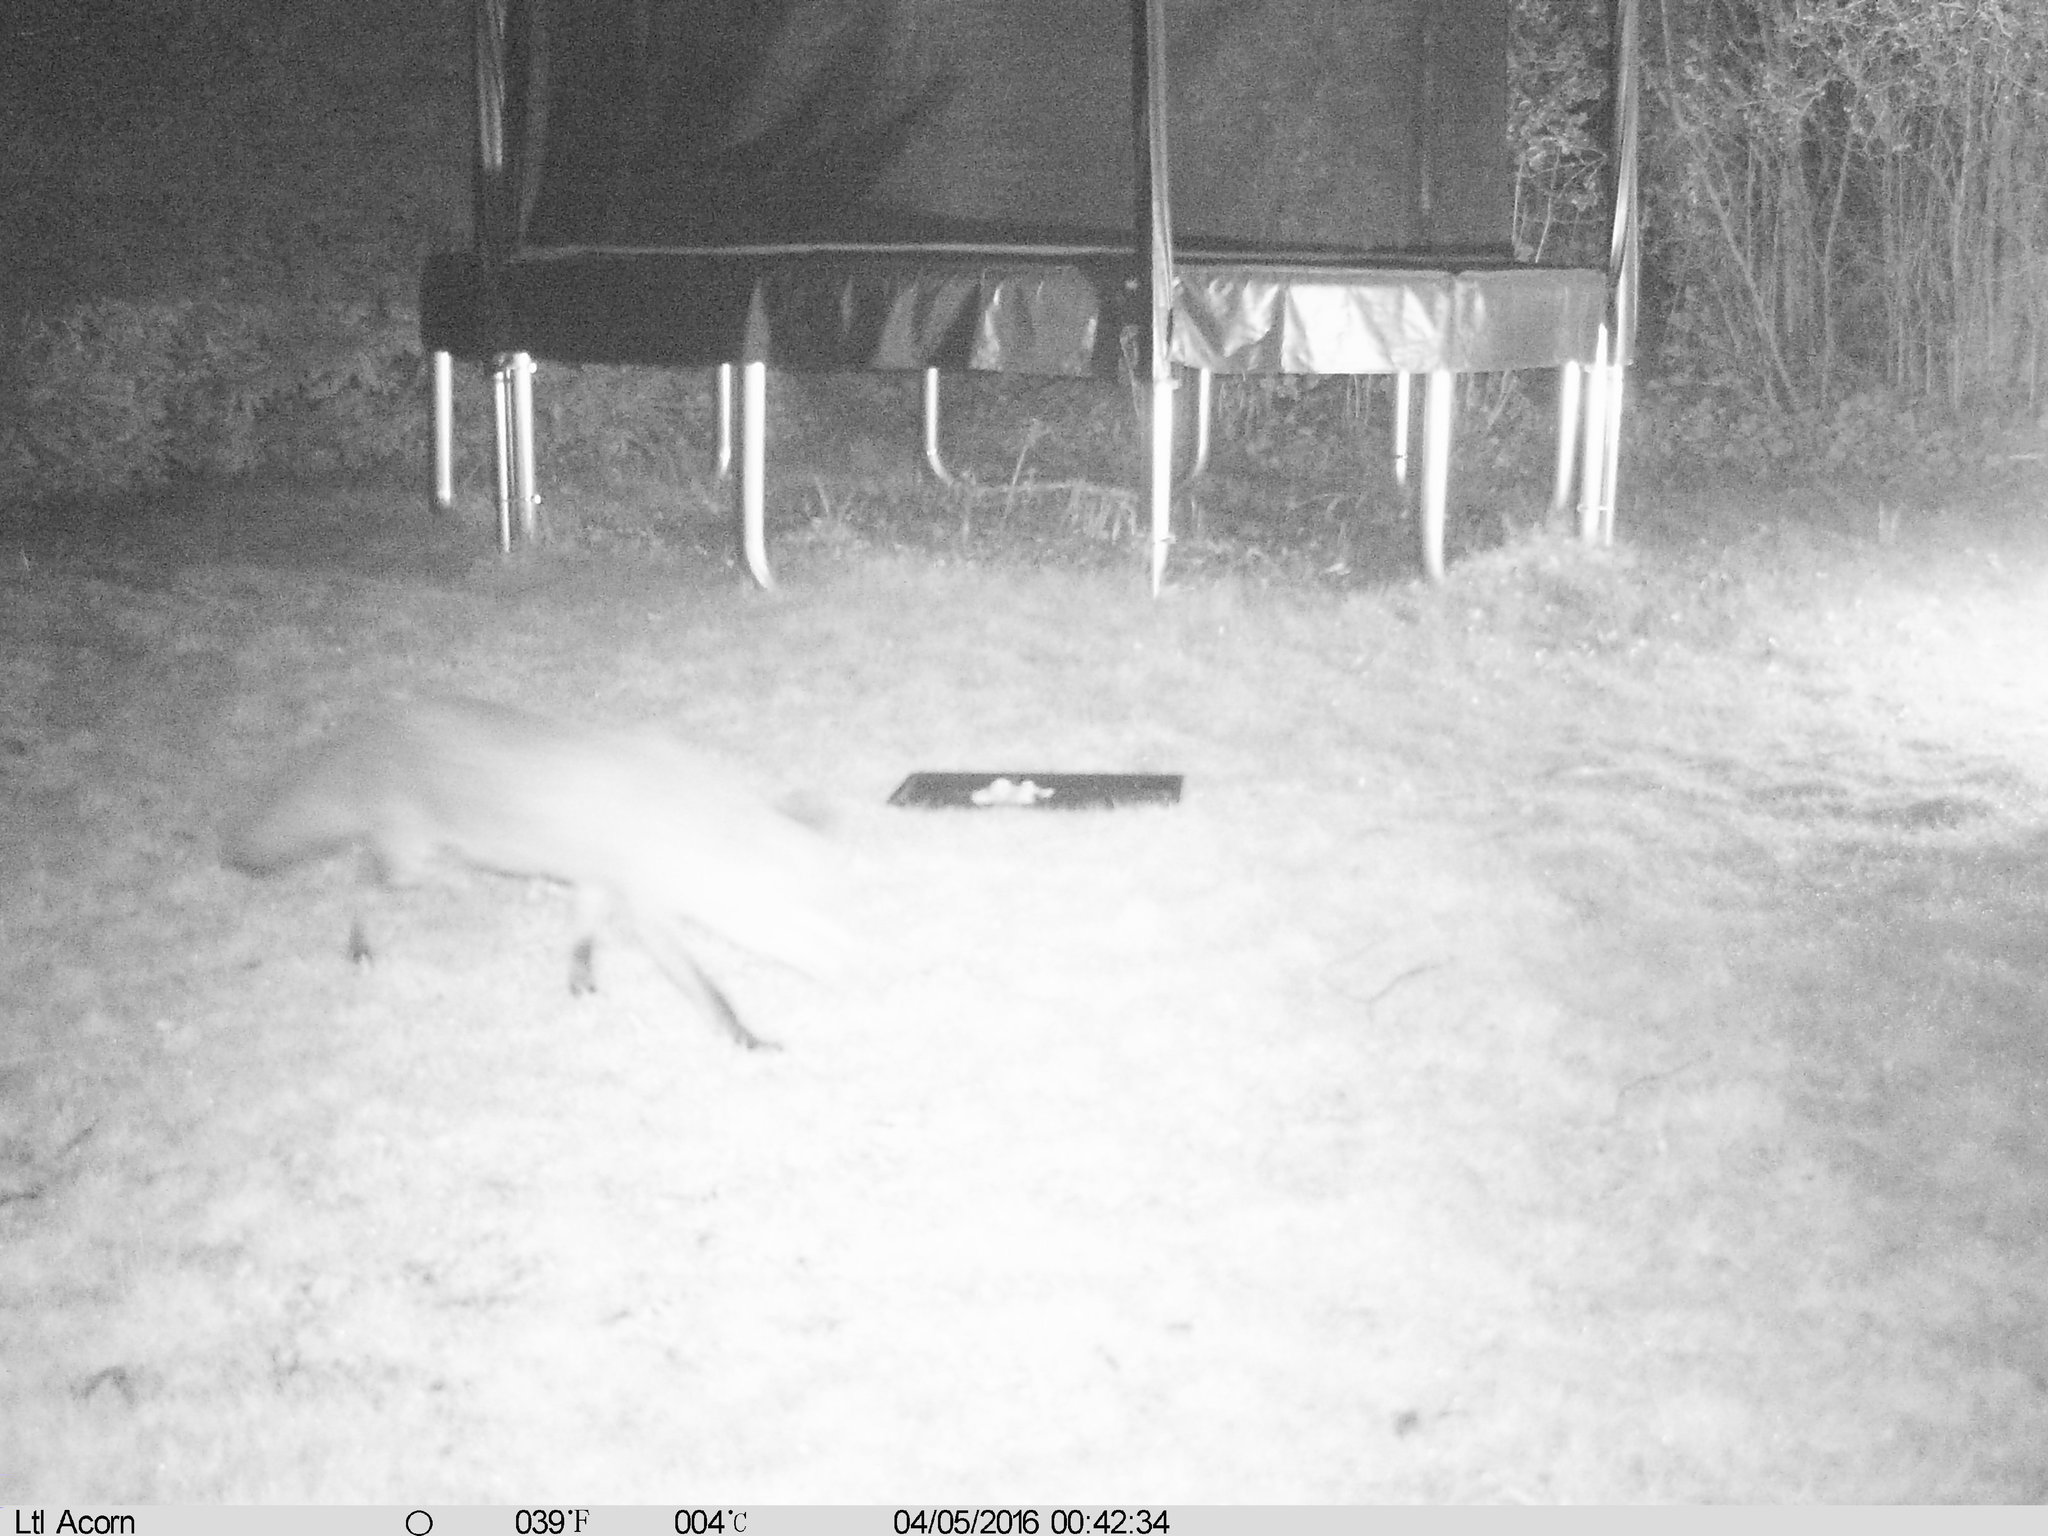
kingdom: Animalia
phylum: Chordata
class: Mammalia
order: Carnivora
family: Canidae
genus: Vulpes
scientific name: Vulpes vulpes
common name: Red fox
